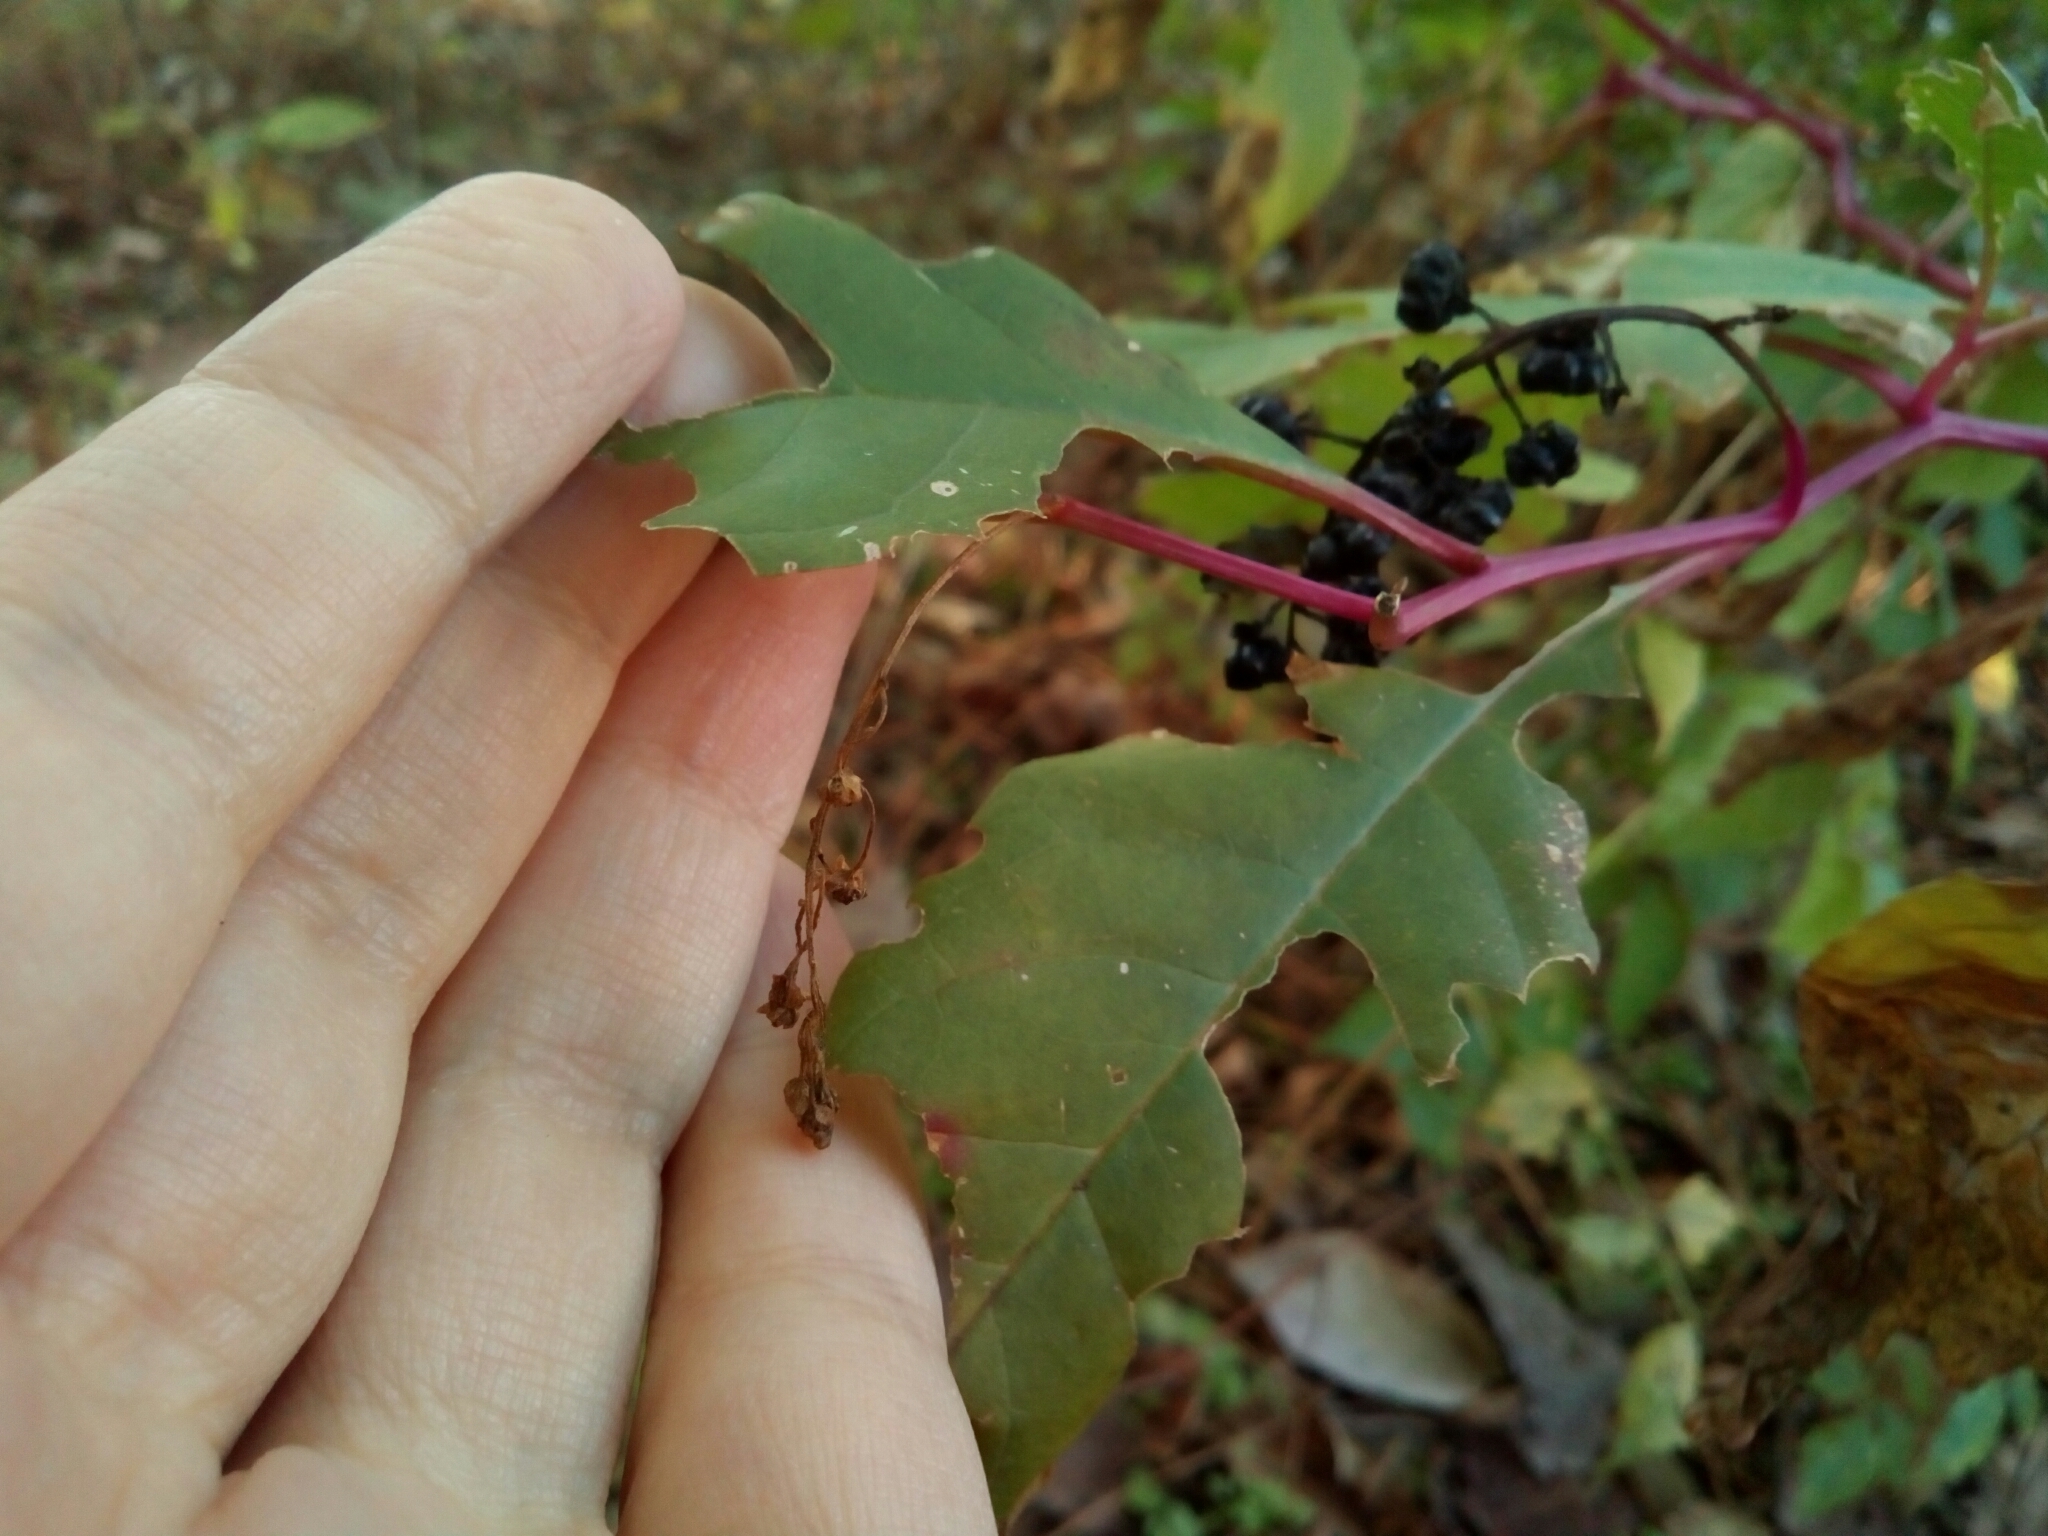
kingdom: Plantae
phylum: Tracheophyta
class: Magnoliopsida
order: Caryophyllales
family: Phytolaccaceae
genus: Phytolacca
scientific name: Phytolacca americana
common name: American pokeweed
